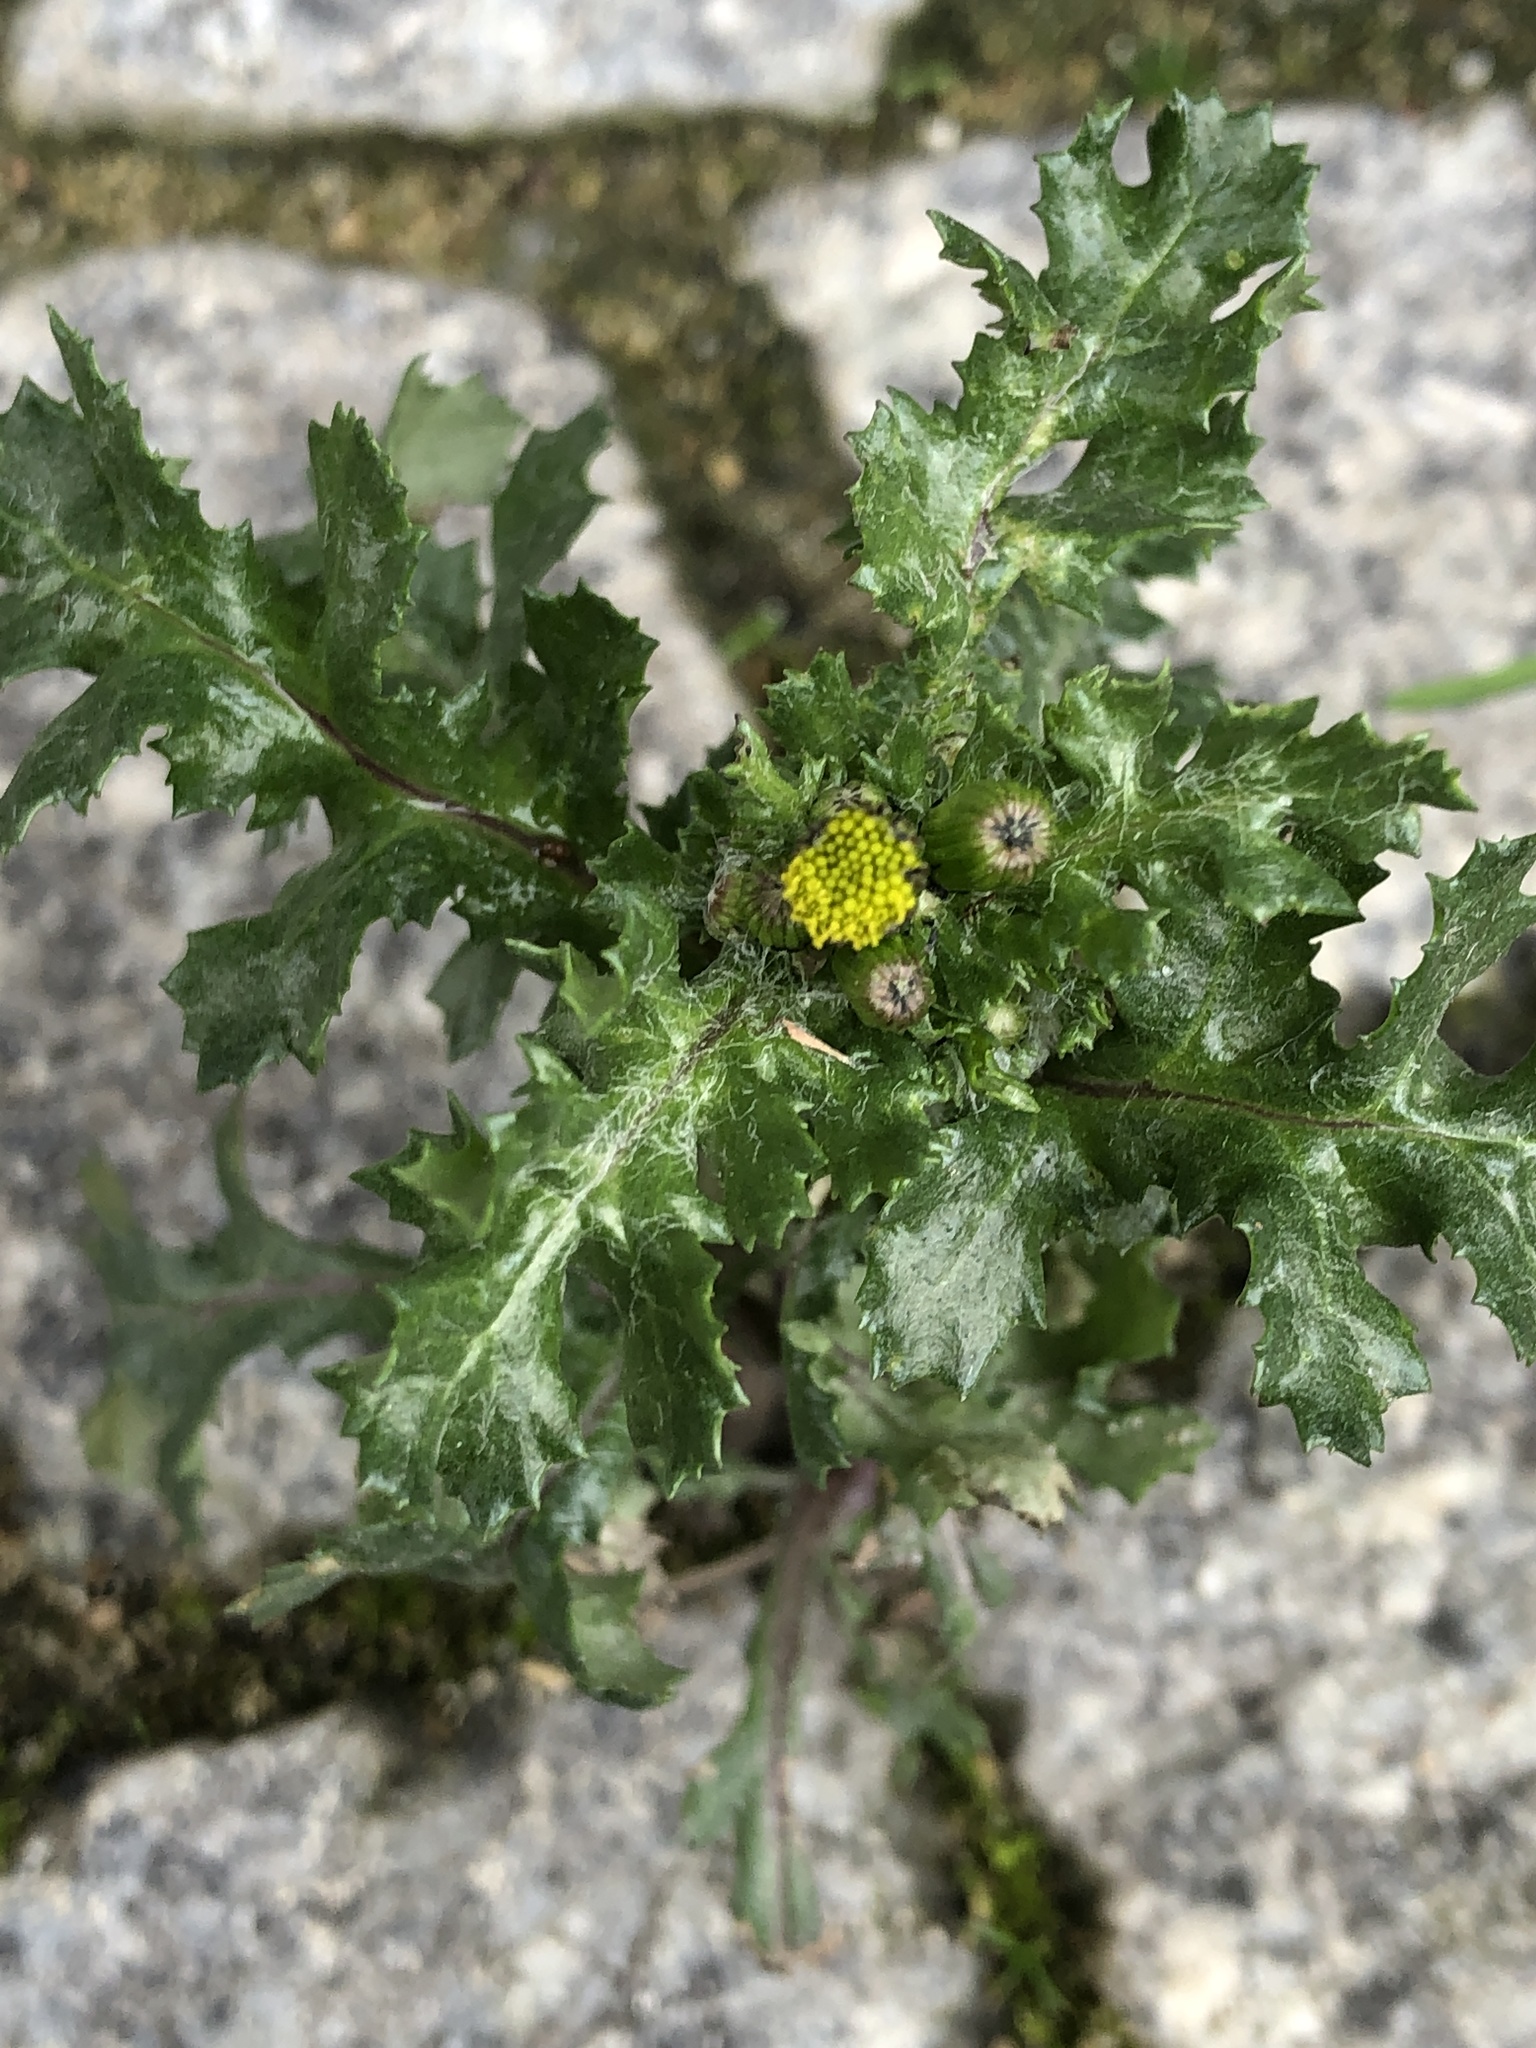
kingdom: Plantae
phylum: Tracheophyta
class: Magnoliopsida
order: Asterales
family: Asteraceae
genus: Senecio
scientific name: Senecio vulgaris
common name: Old-man-in-the-spring
